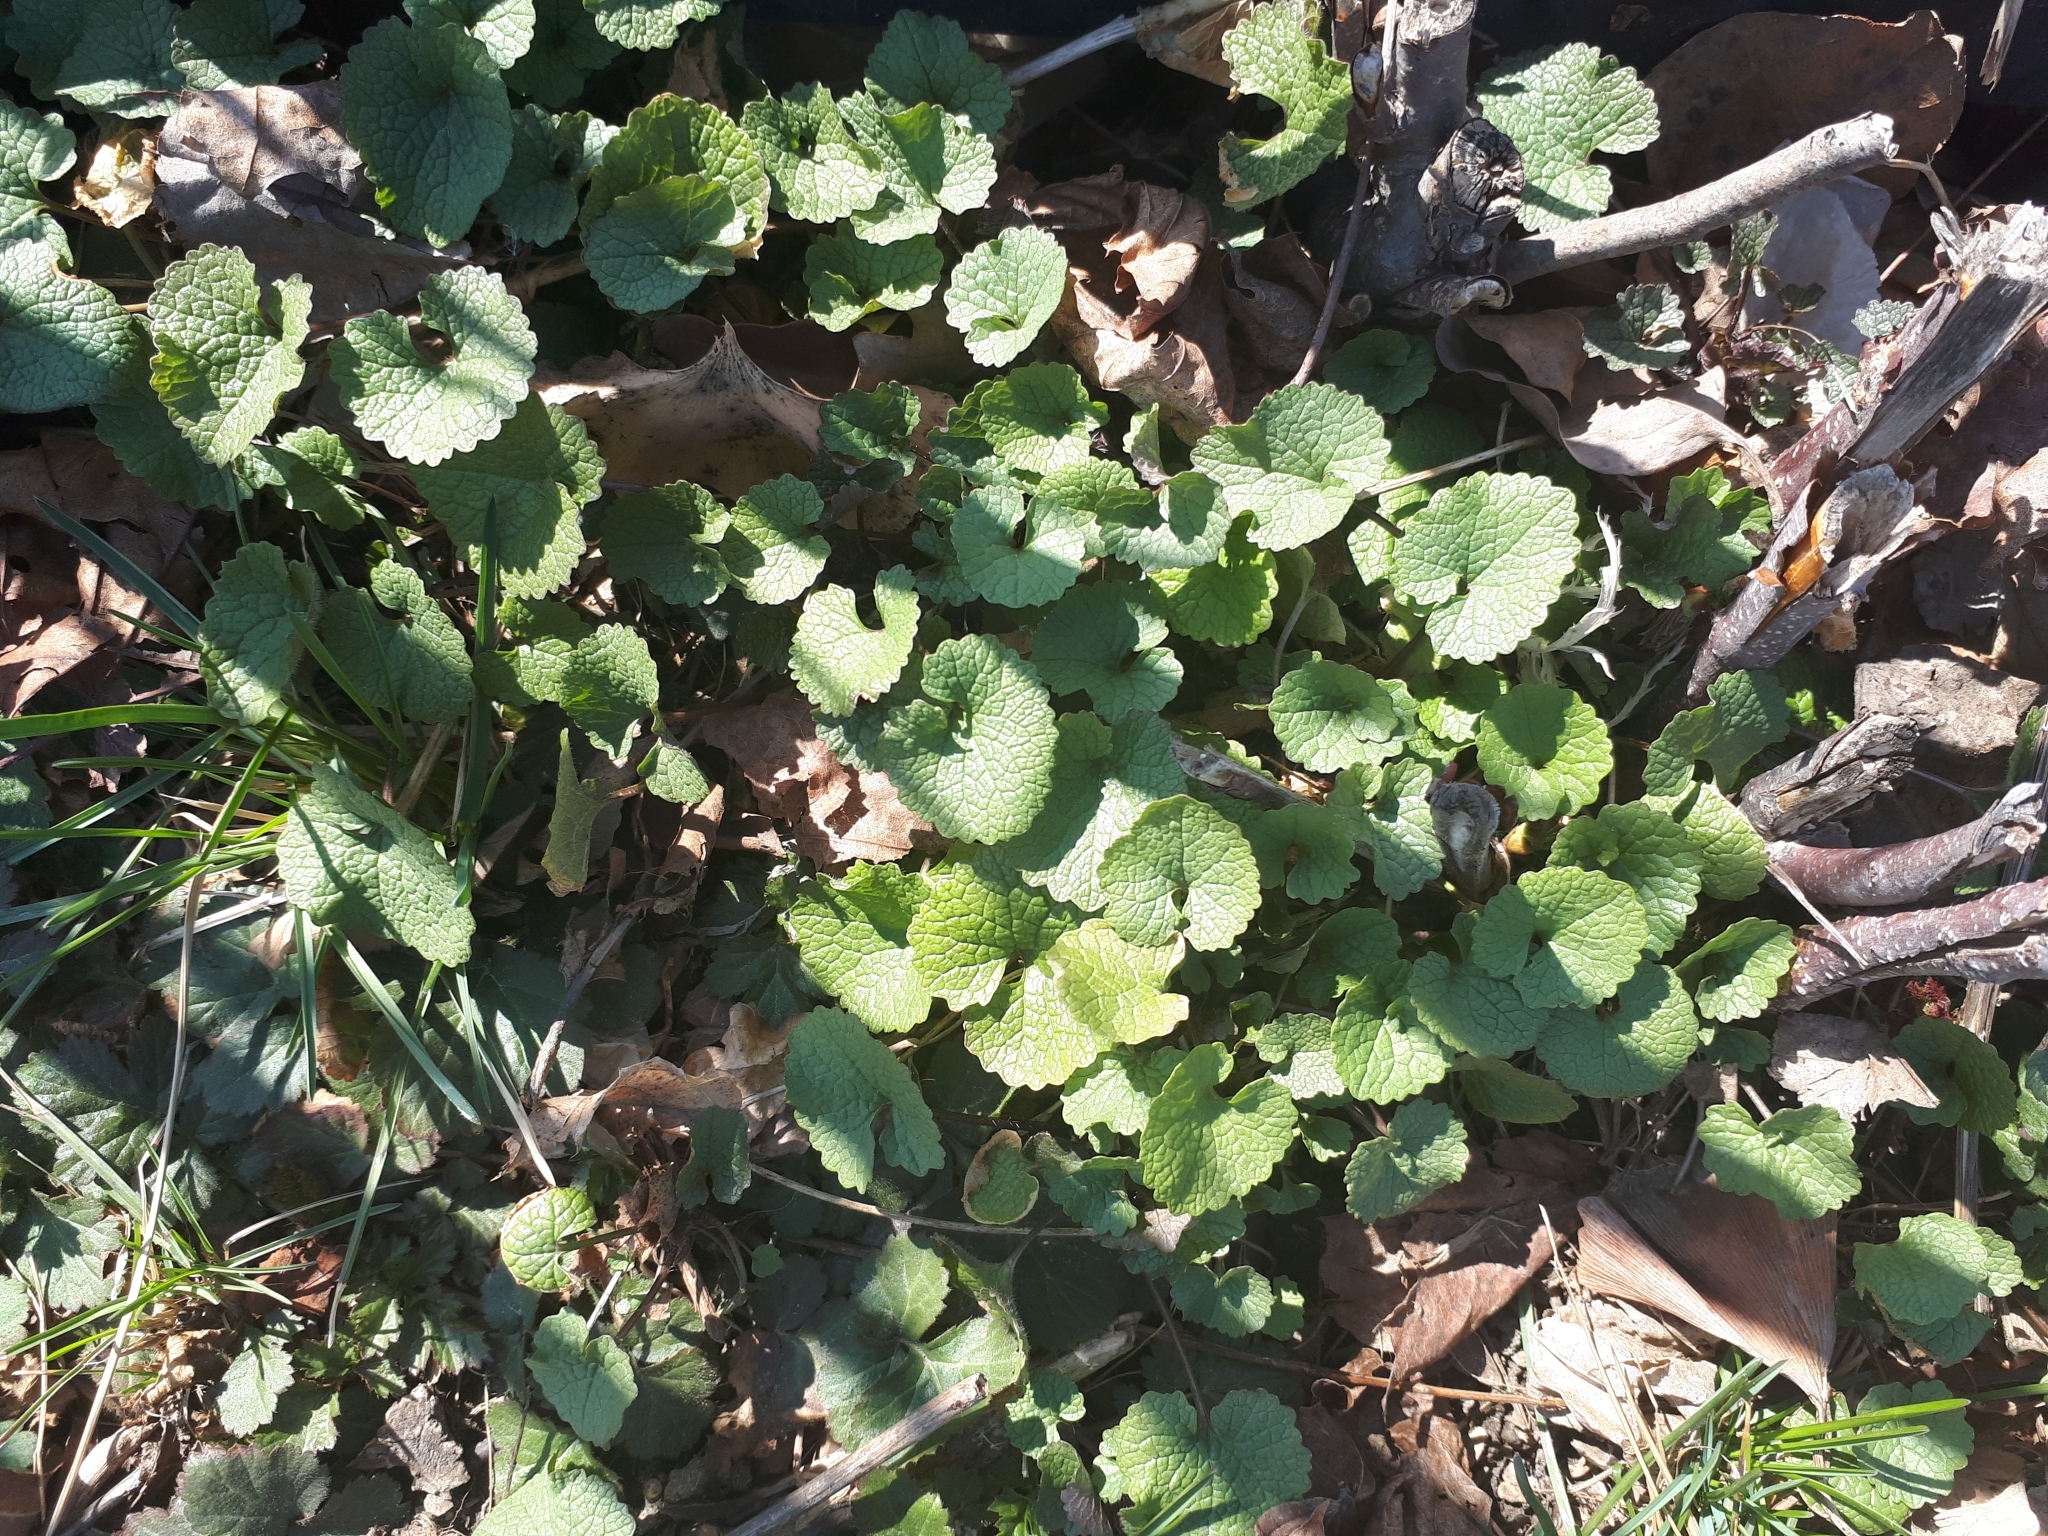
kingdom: Plantae
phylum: Tracheophyta
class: Magnoliopsida
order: Brassicales
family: Brassicaceae
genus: Alliaria
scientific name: Alliaria petiolata
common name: Garlic mustard
